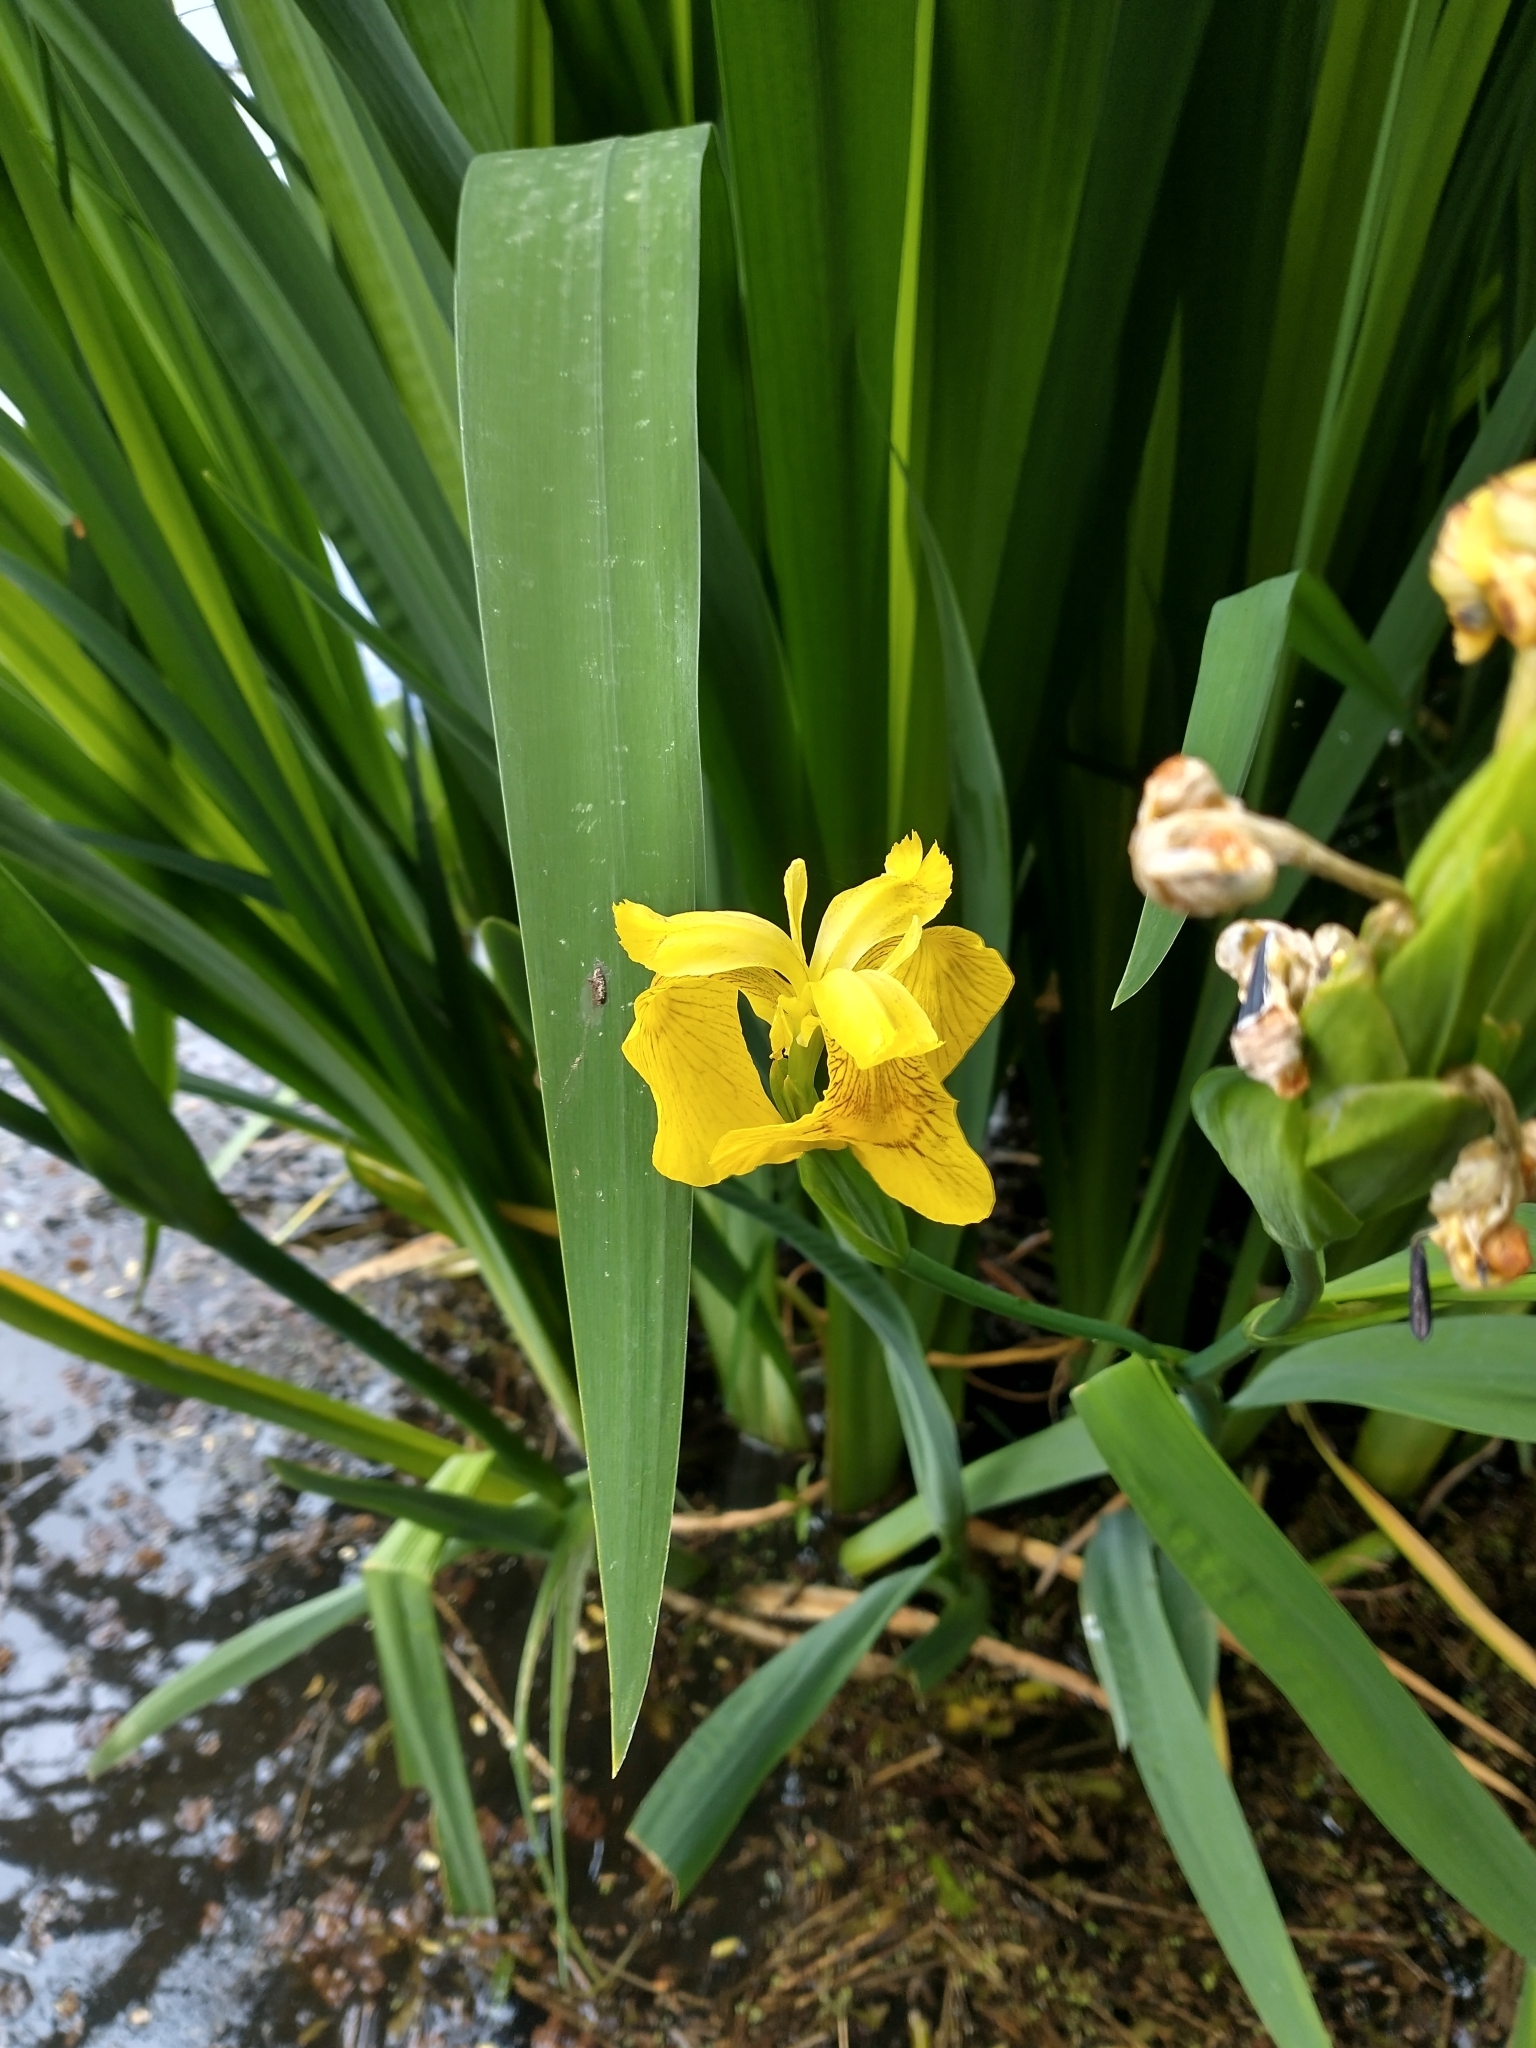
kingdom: Plantae
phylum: Tracheophyta
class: Liliopsida
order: Asparagales
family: Iridaceae
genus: Iris
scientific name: Iris pseudacorus
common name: Yellow flag
